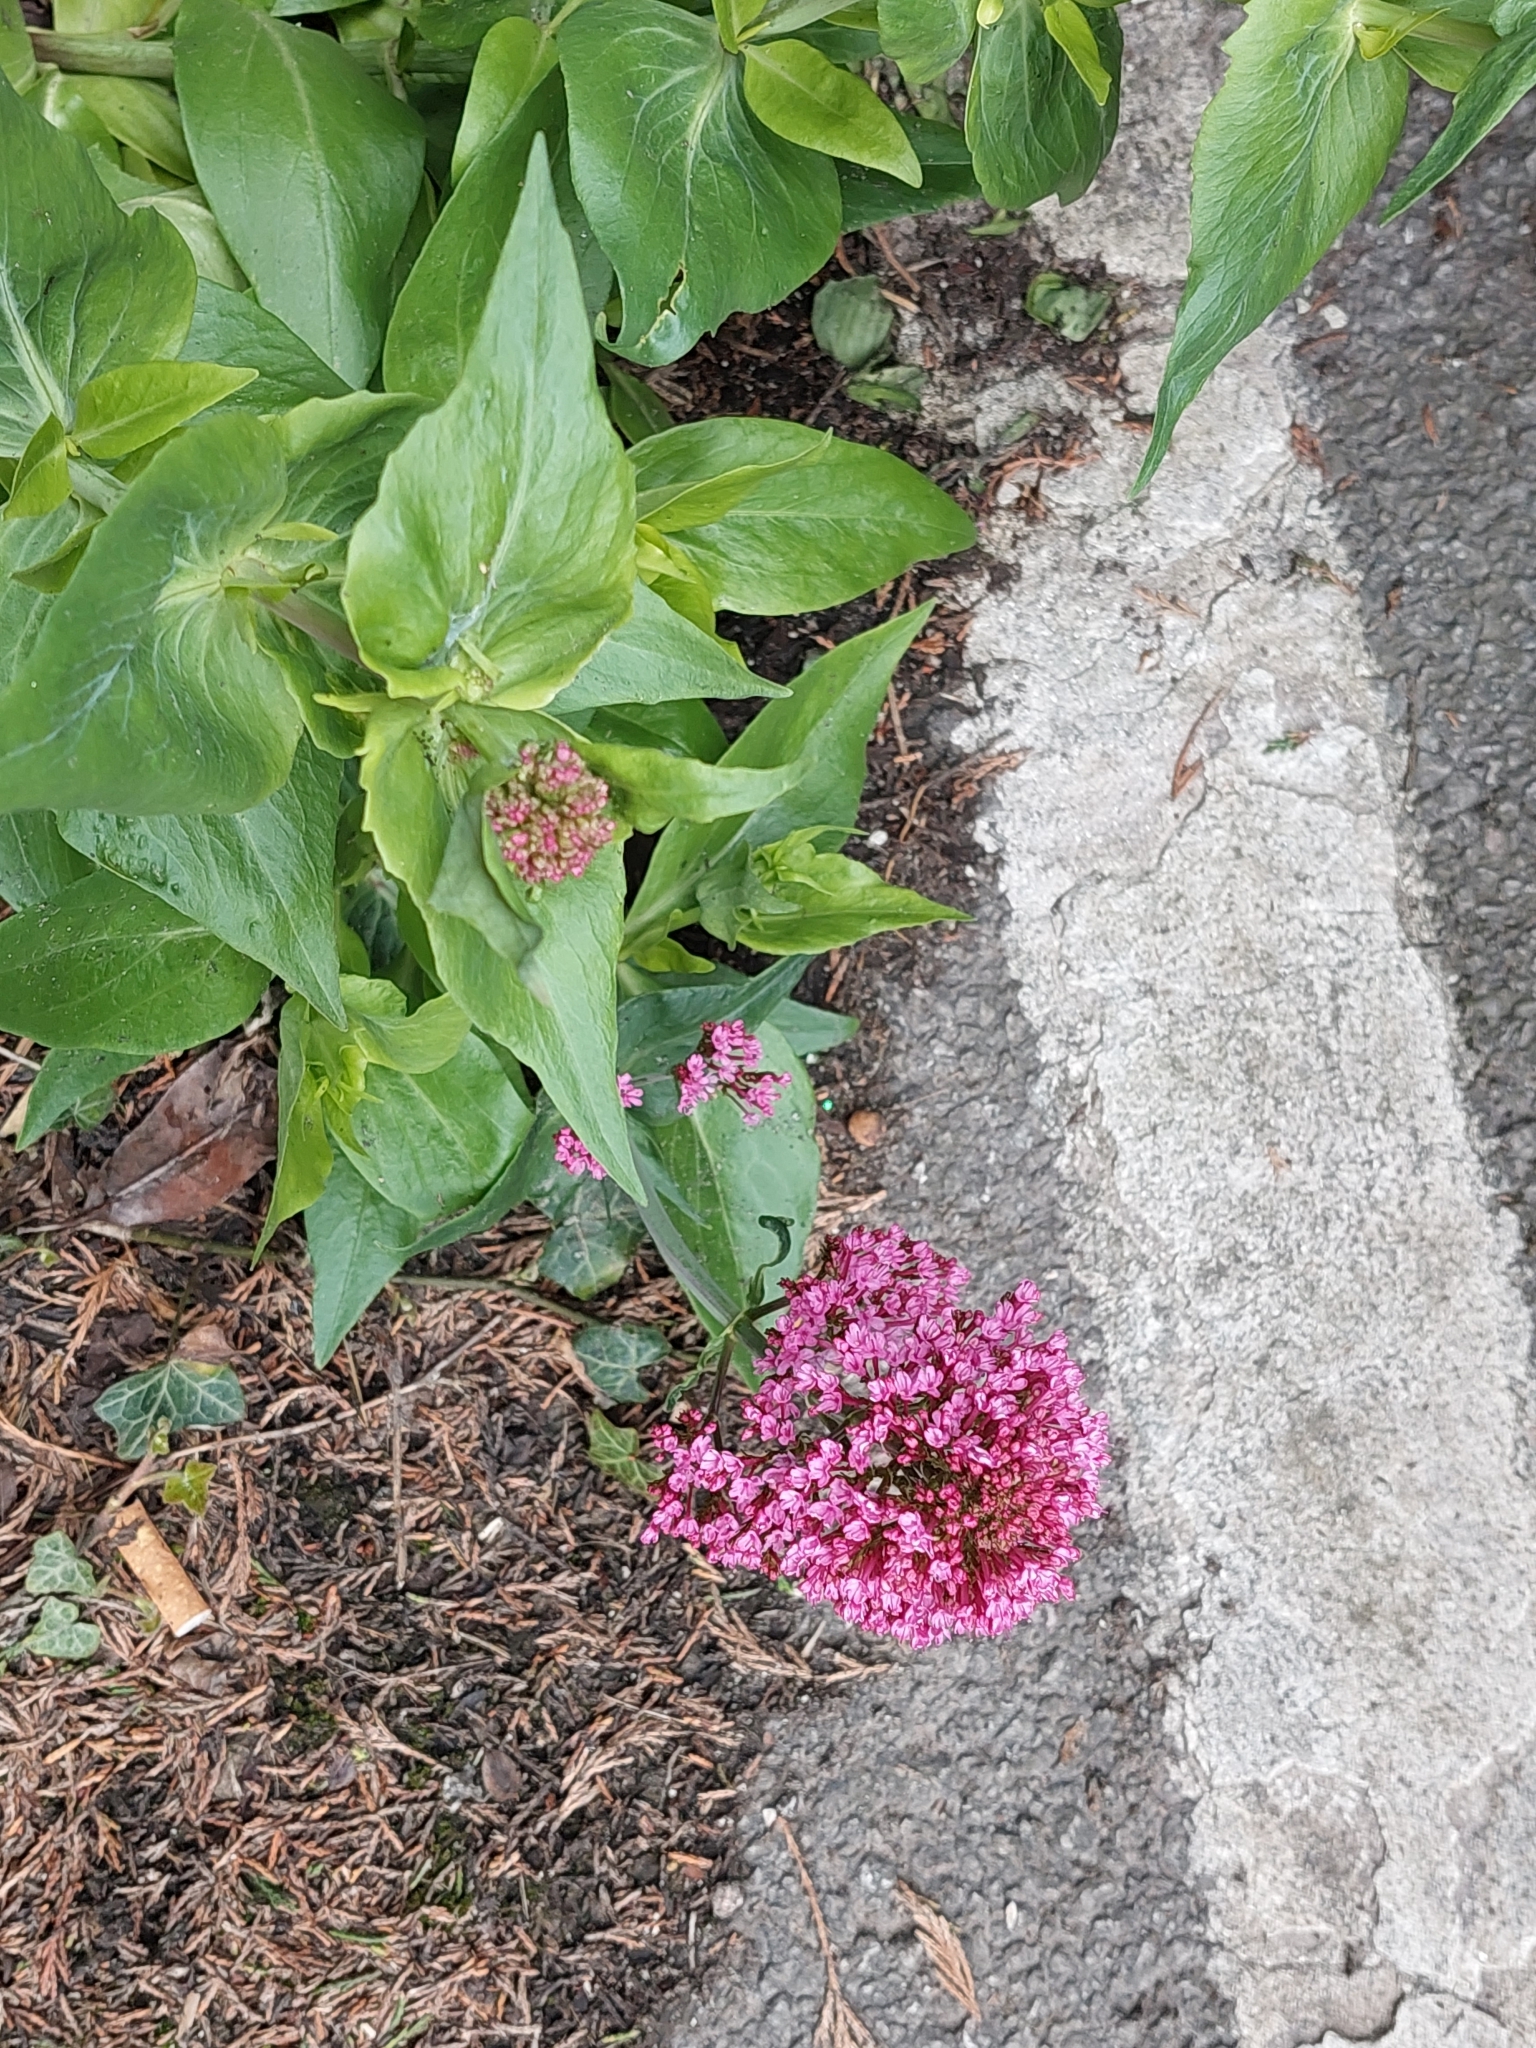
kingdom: Plantae
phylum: Tracheophyta
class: Magnoliopsida
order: Dipsacales
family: Caprifoliaceae
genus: Centranthus
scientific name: Centranthus ruber
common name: Red valerian
